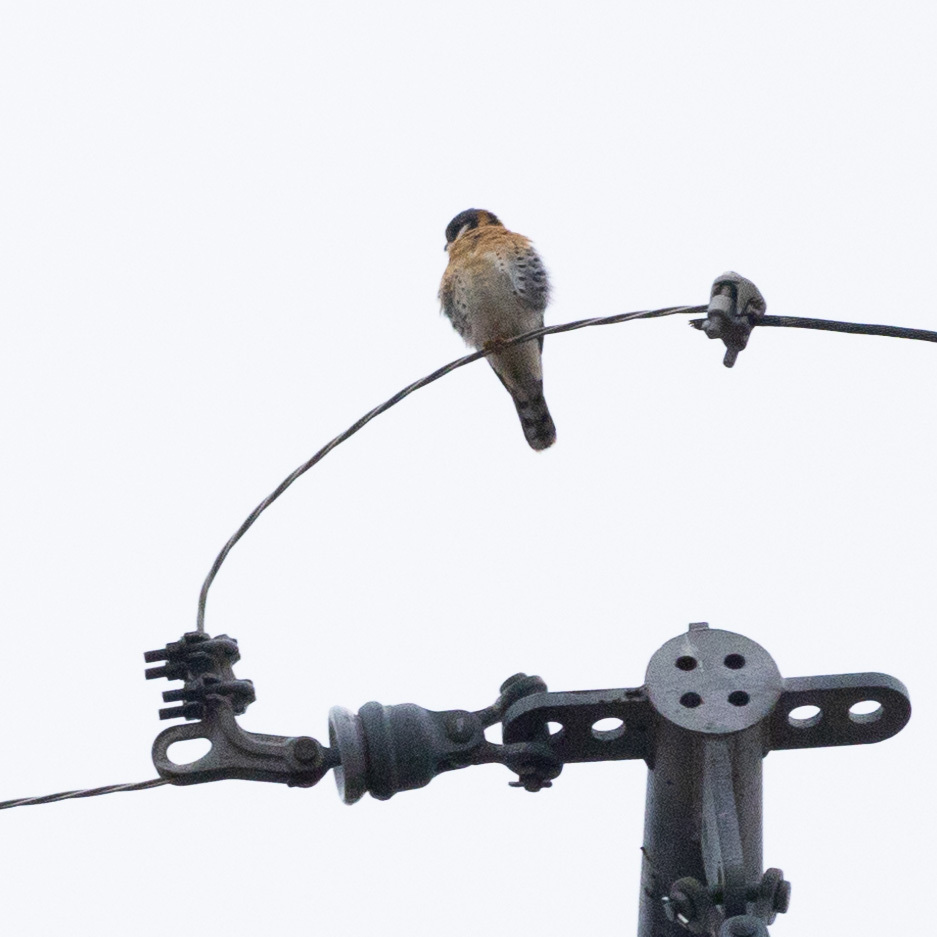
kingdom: Animalia
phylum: Chordata
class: Aves
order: Falconiformes
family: Falconidae
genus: Falco
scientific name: Falco sparverius
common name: American kestrel
